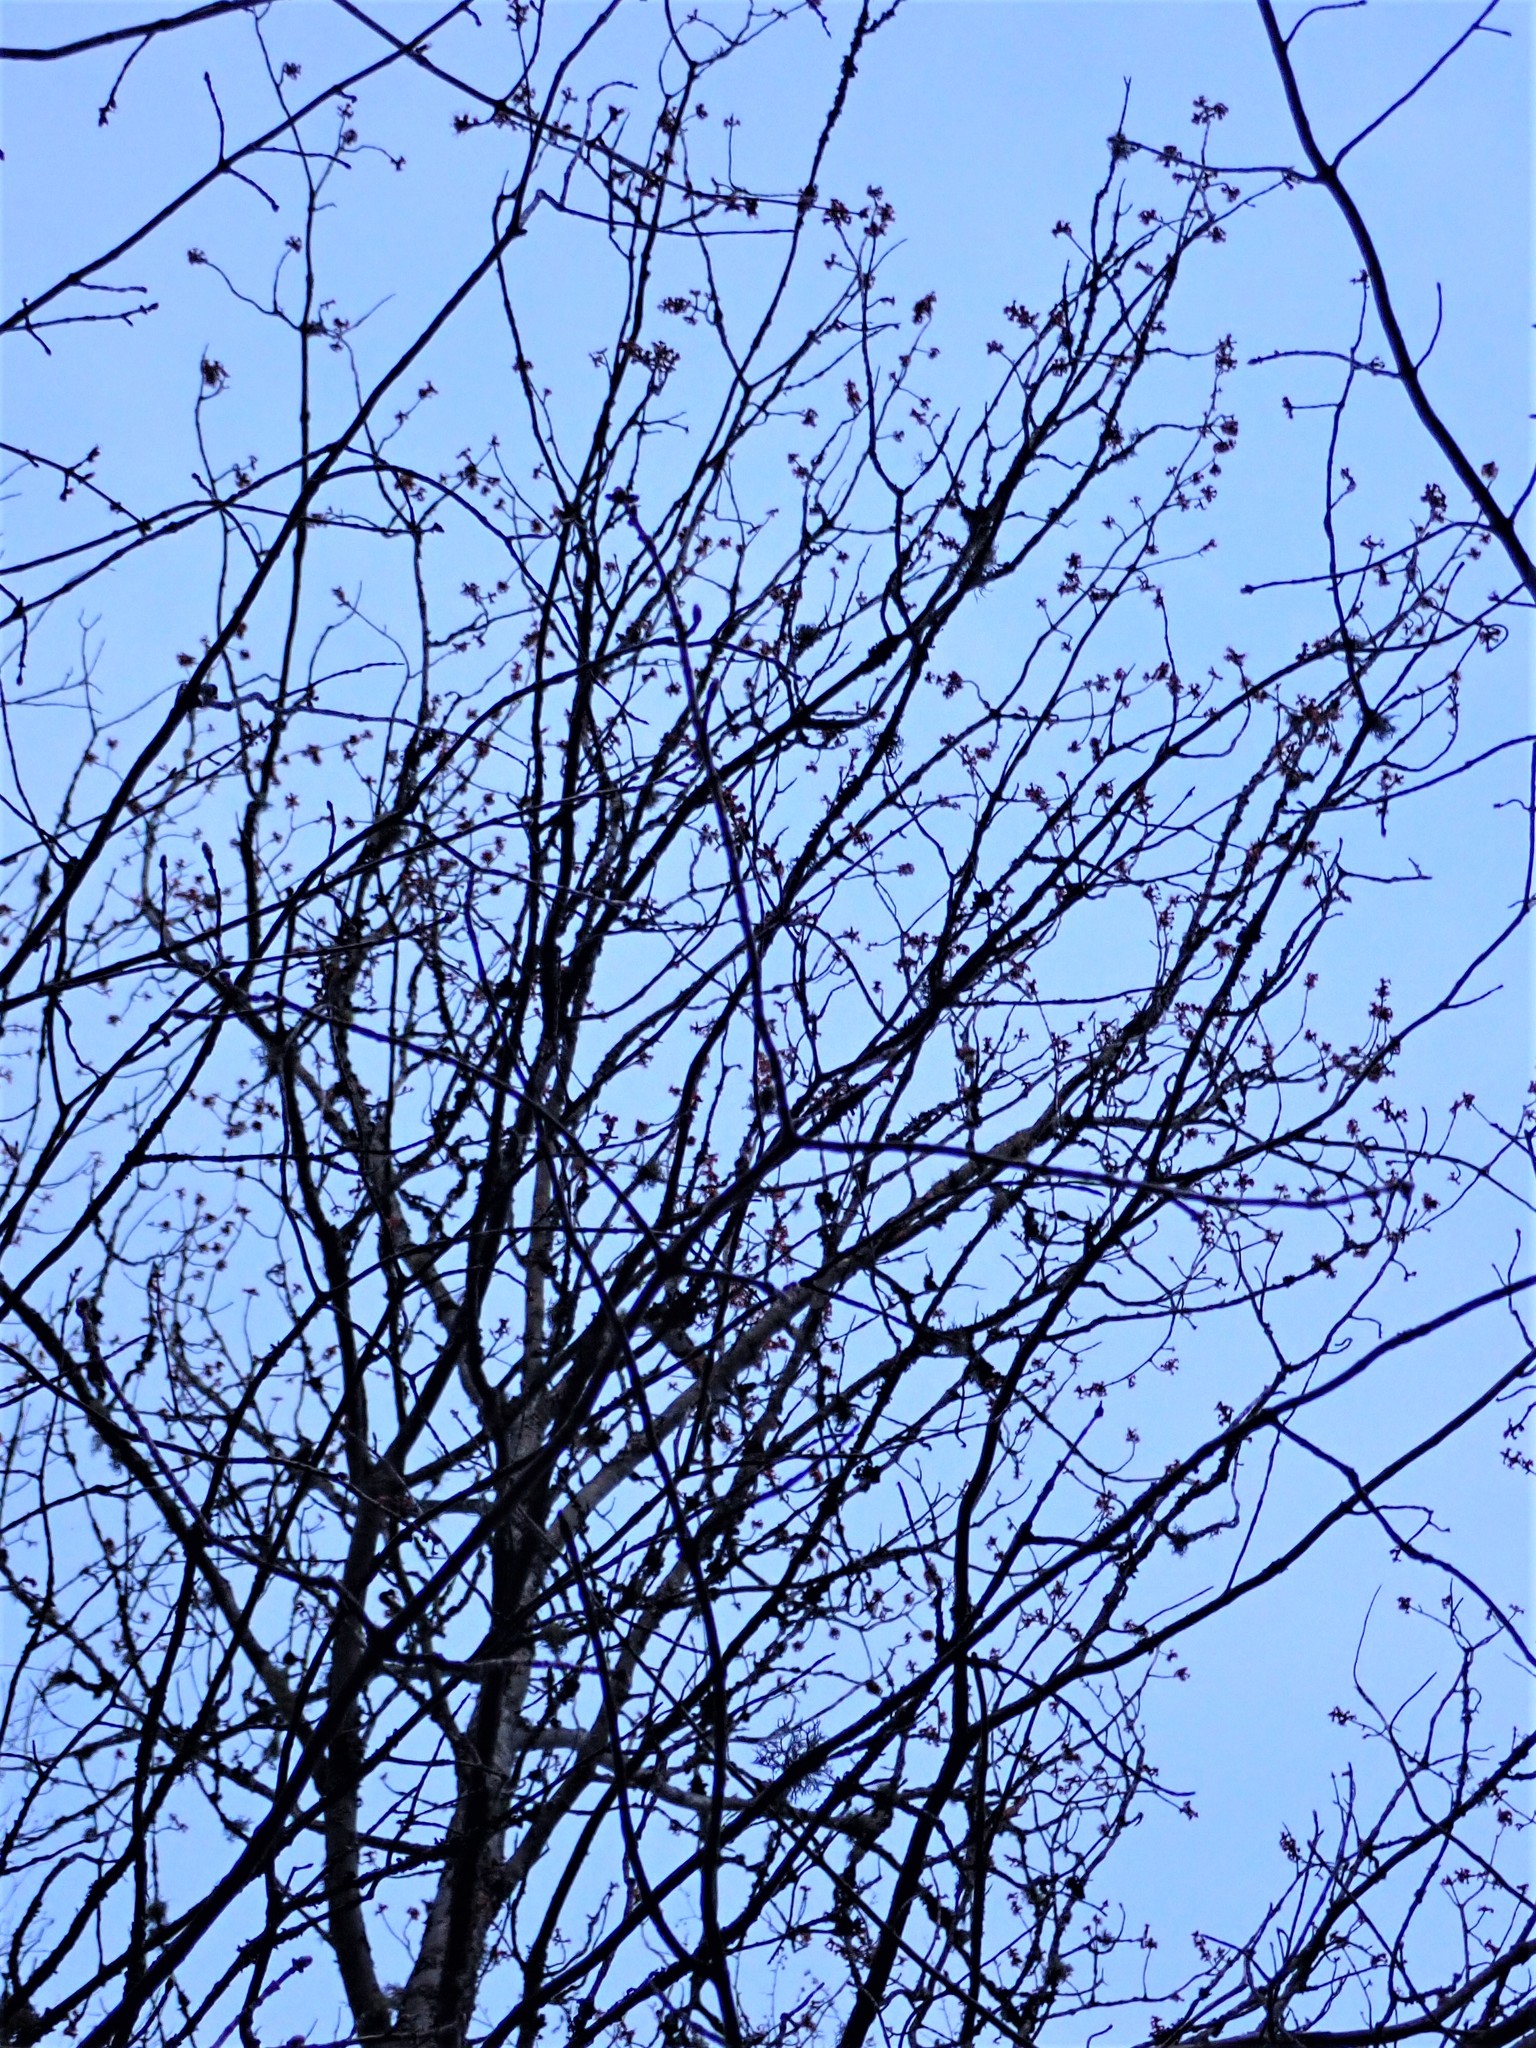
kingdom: Plantae
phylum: Tracheophyta
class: Magnoliopsida
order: Sapindales
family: Sapindaceae
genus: Acer
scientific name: Acer rubrum
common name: Red maple
